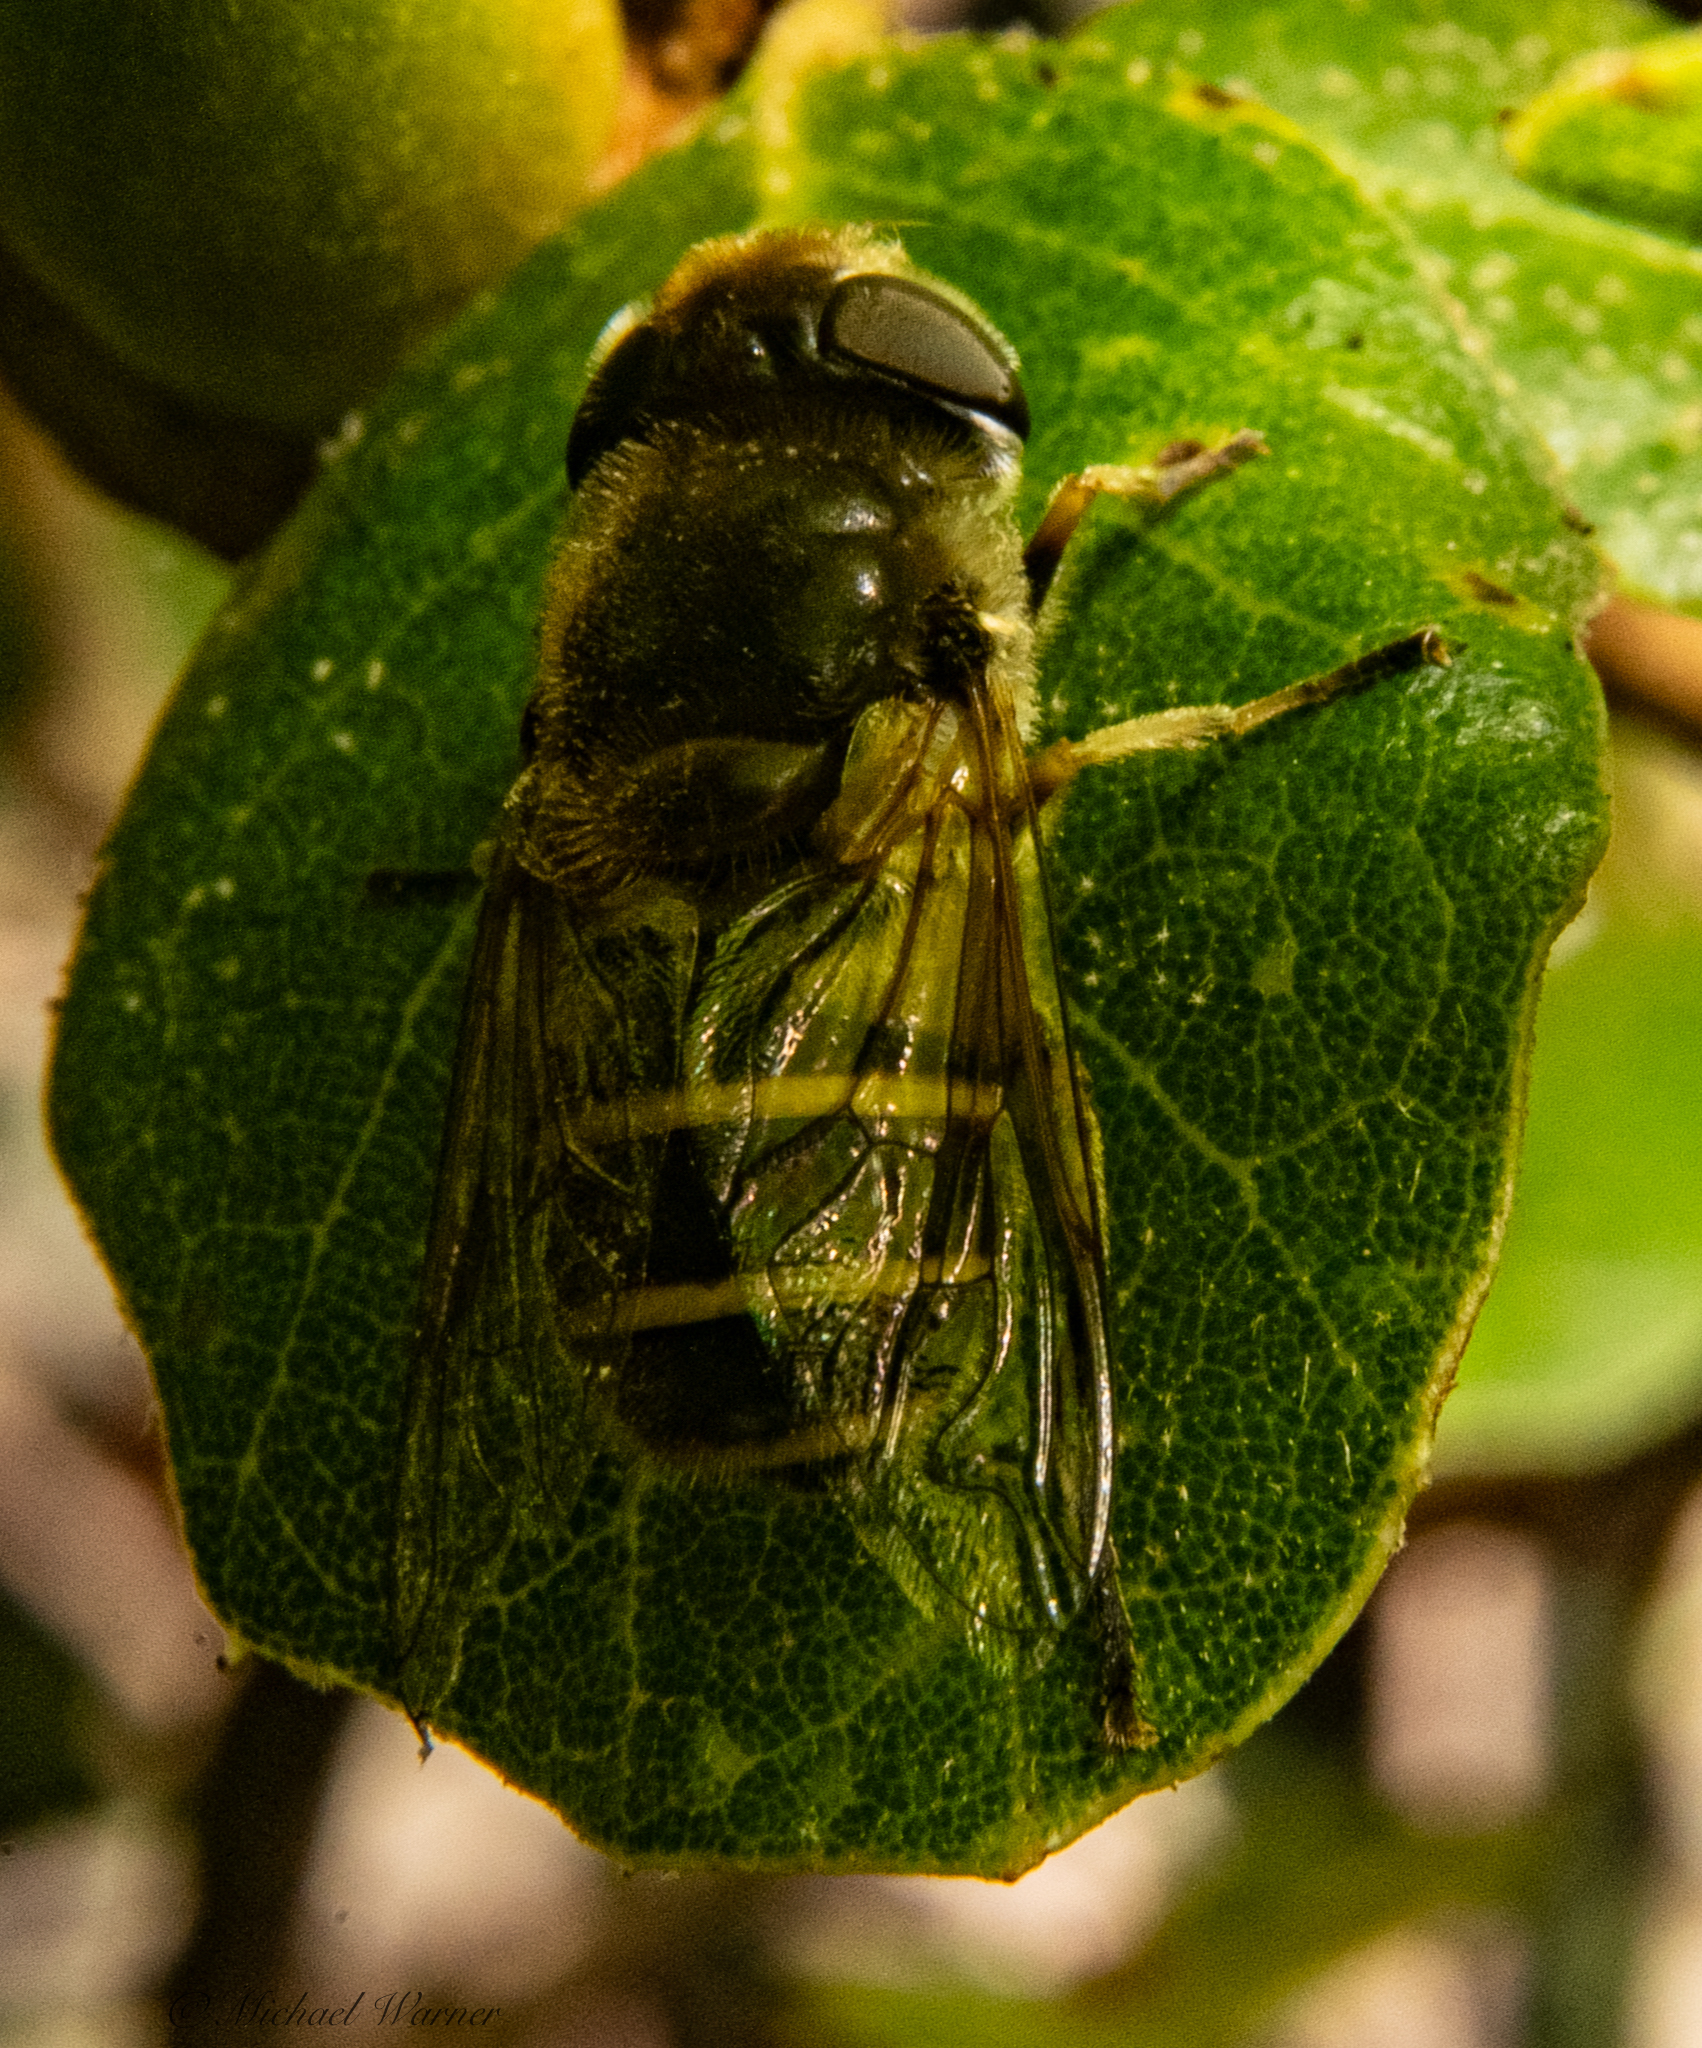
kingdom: Animalia
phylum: Arthropoda
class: Insecta
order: Diptera
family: Syrphidae
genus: Eristalis
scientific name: Eristalis hirta
